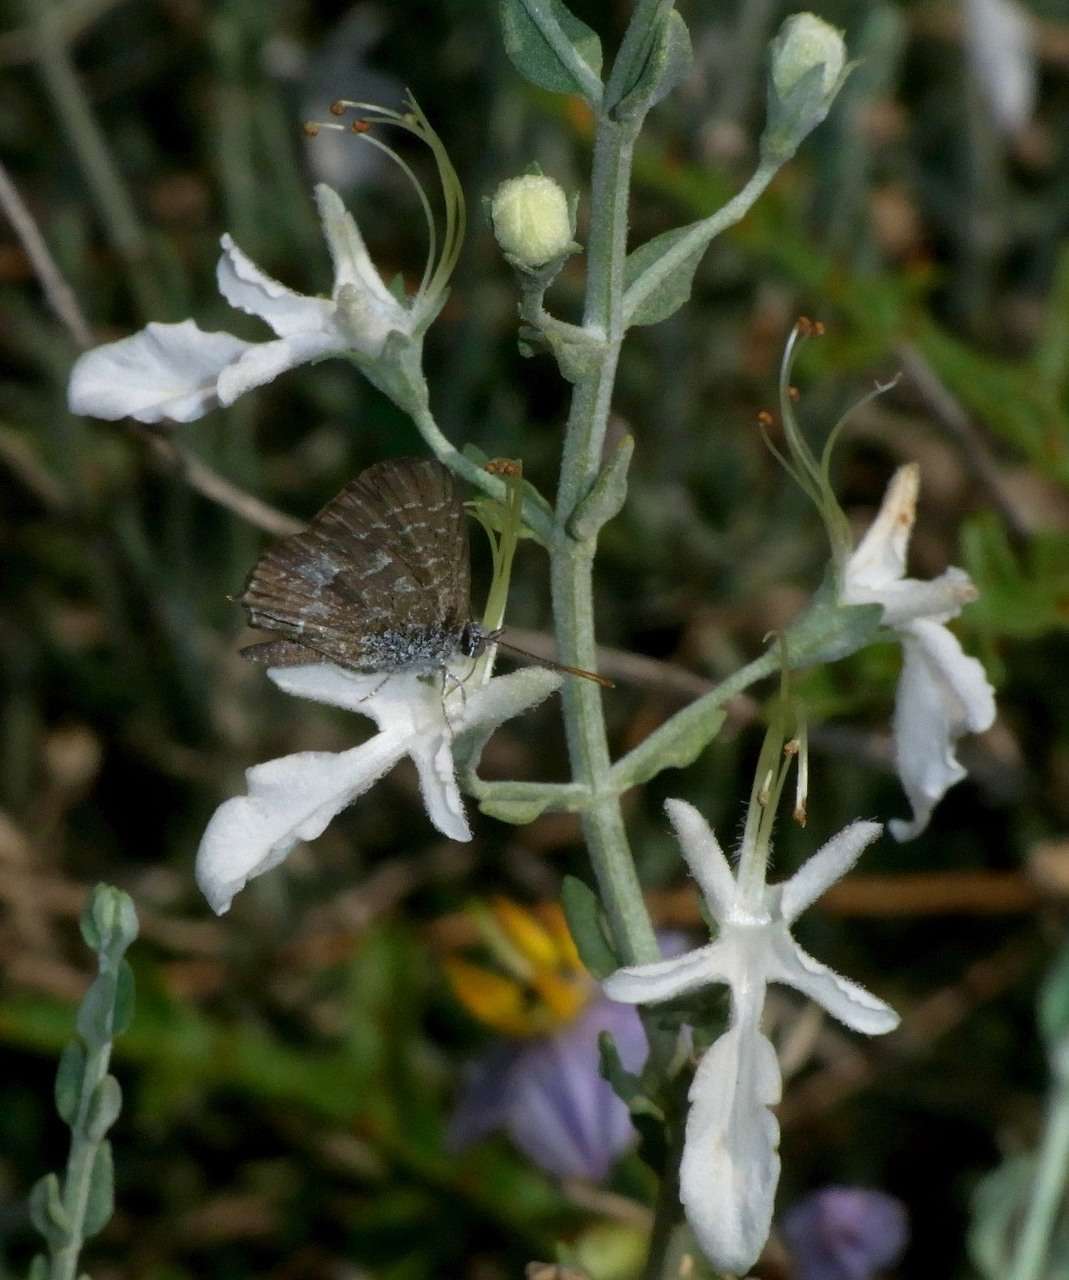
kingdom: Animalia
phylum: Arthropoda
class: Insecta
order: Lepidoptera
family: Lycaenidae
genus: Theclinesthes
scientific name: Theclinesthes serpentata
